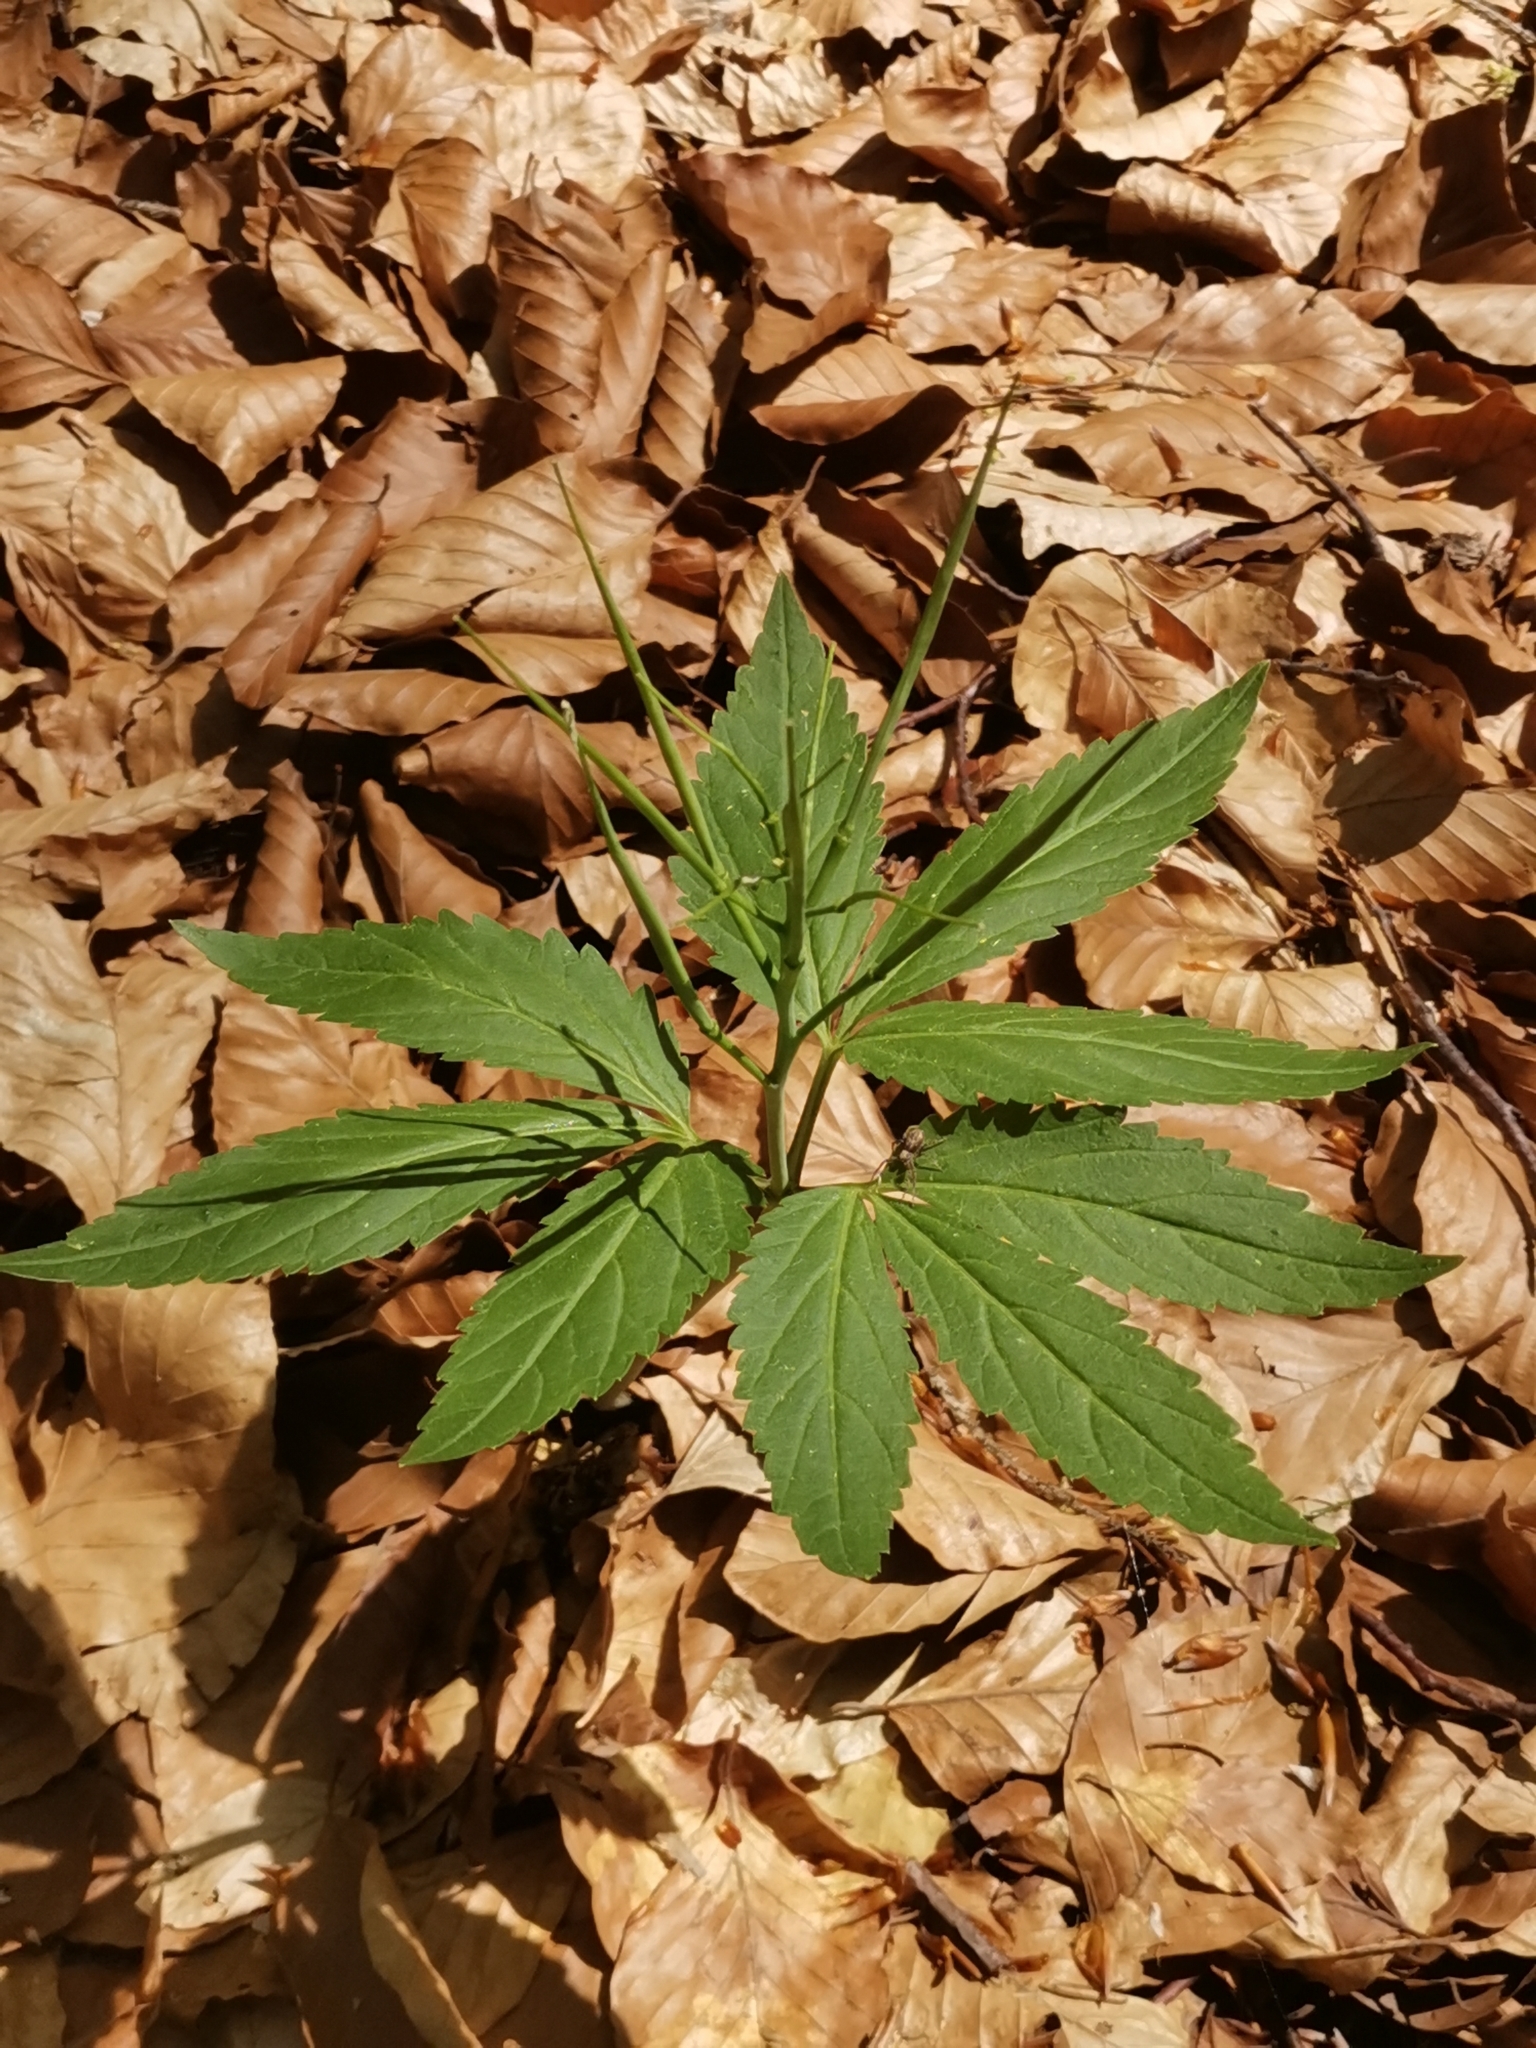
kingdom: Plantae
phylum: Tracheophyta
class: Magnoliopsida
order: Brassicales
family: Brassicaceae
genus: Cardamine
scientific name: Cardamine enneaphyllos
